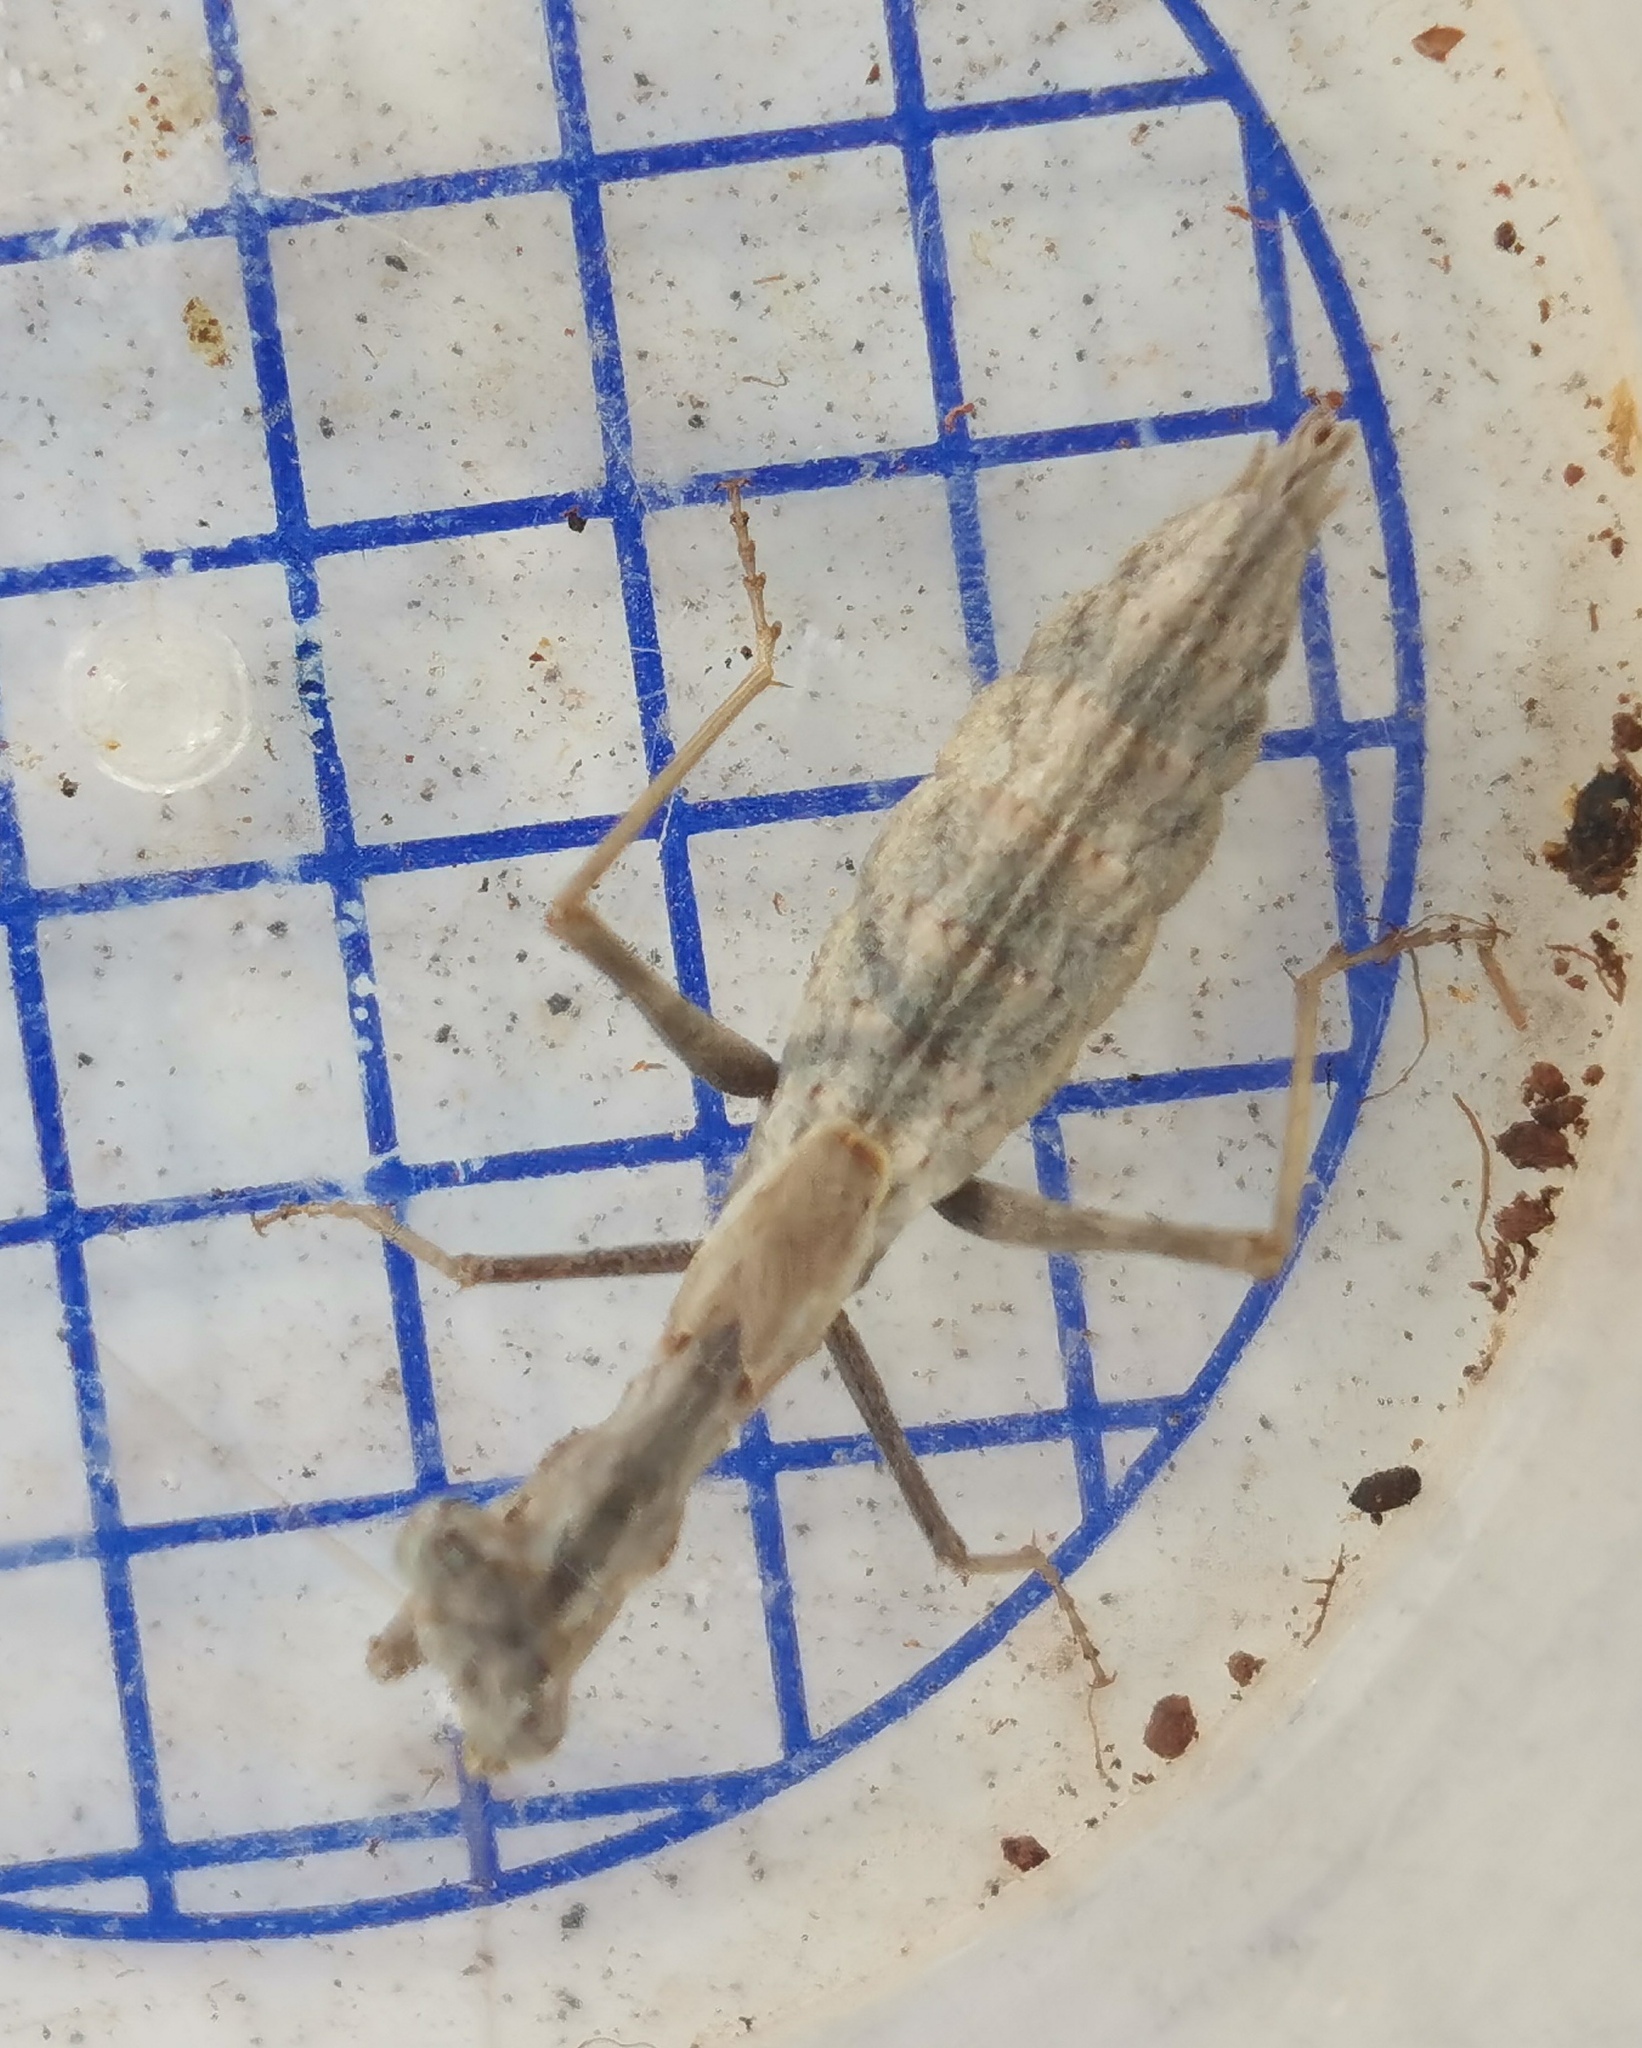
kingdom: Animalia
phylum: Arthropoda
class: Insecta
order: Mantodea
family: Amelidae
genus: Ameles
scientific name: Ameles decolor
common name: Dwarf mantis
